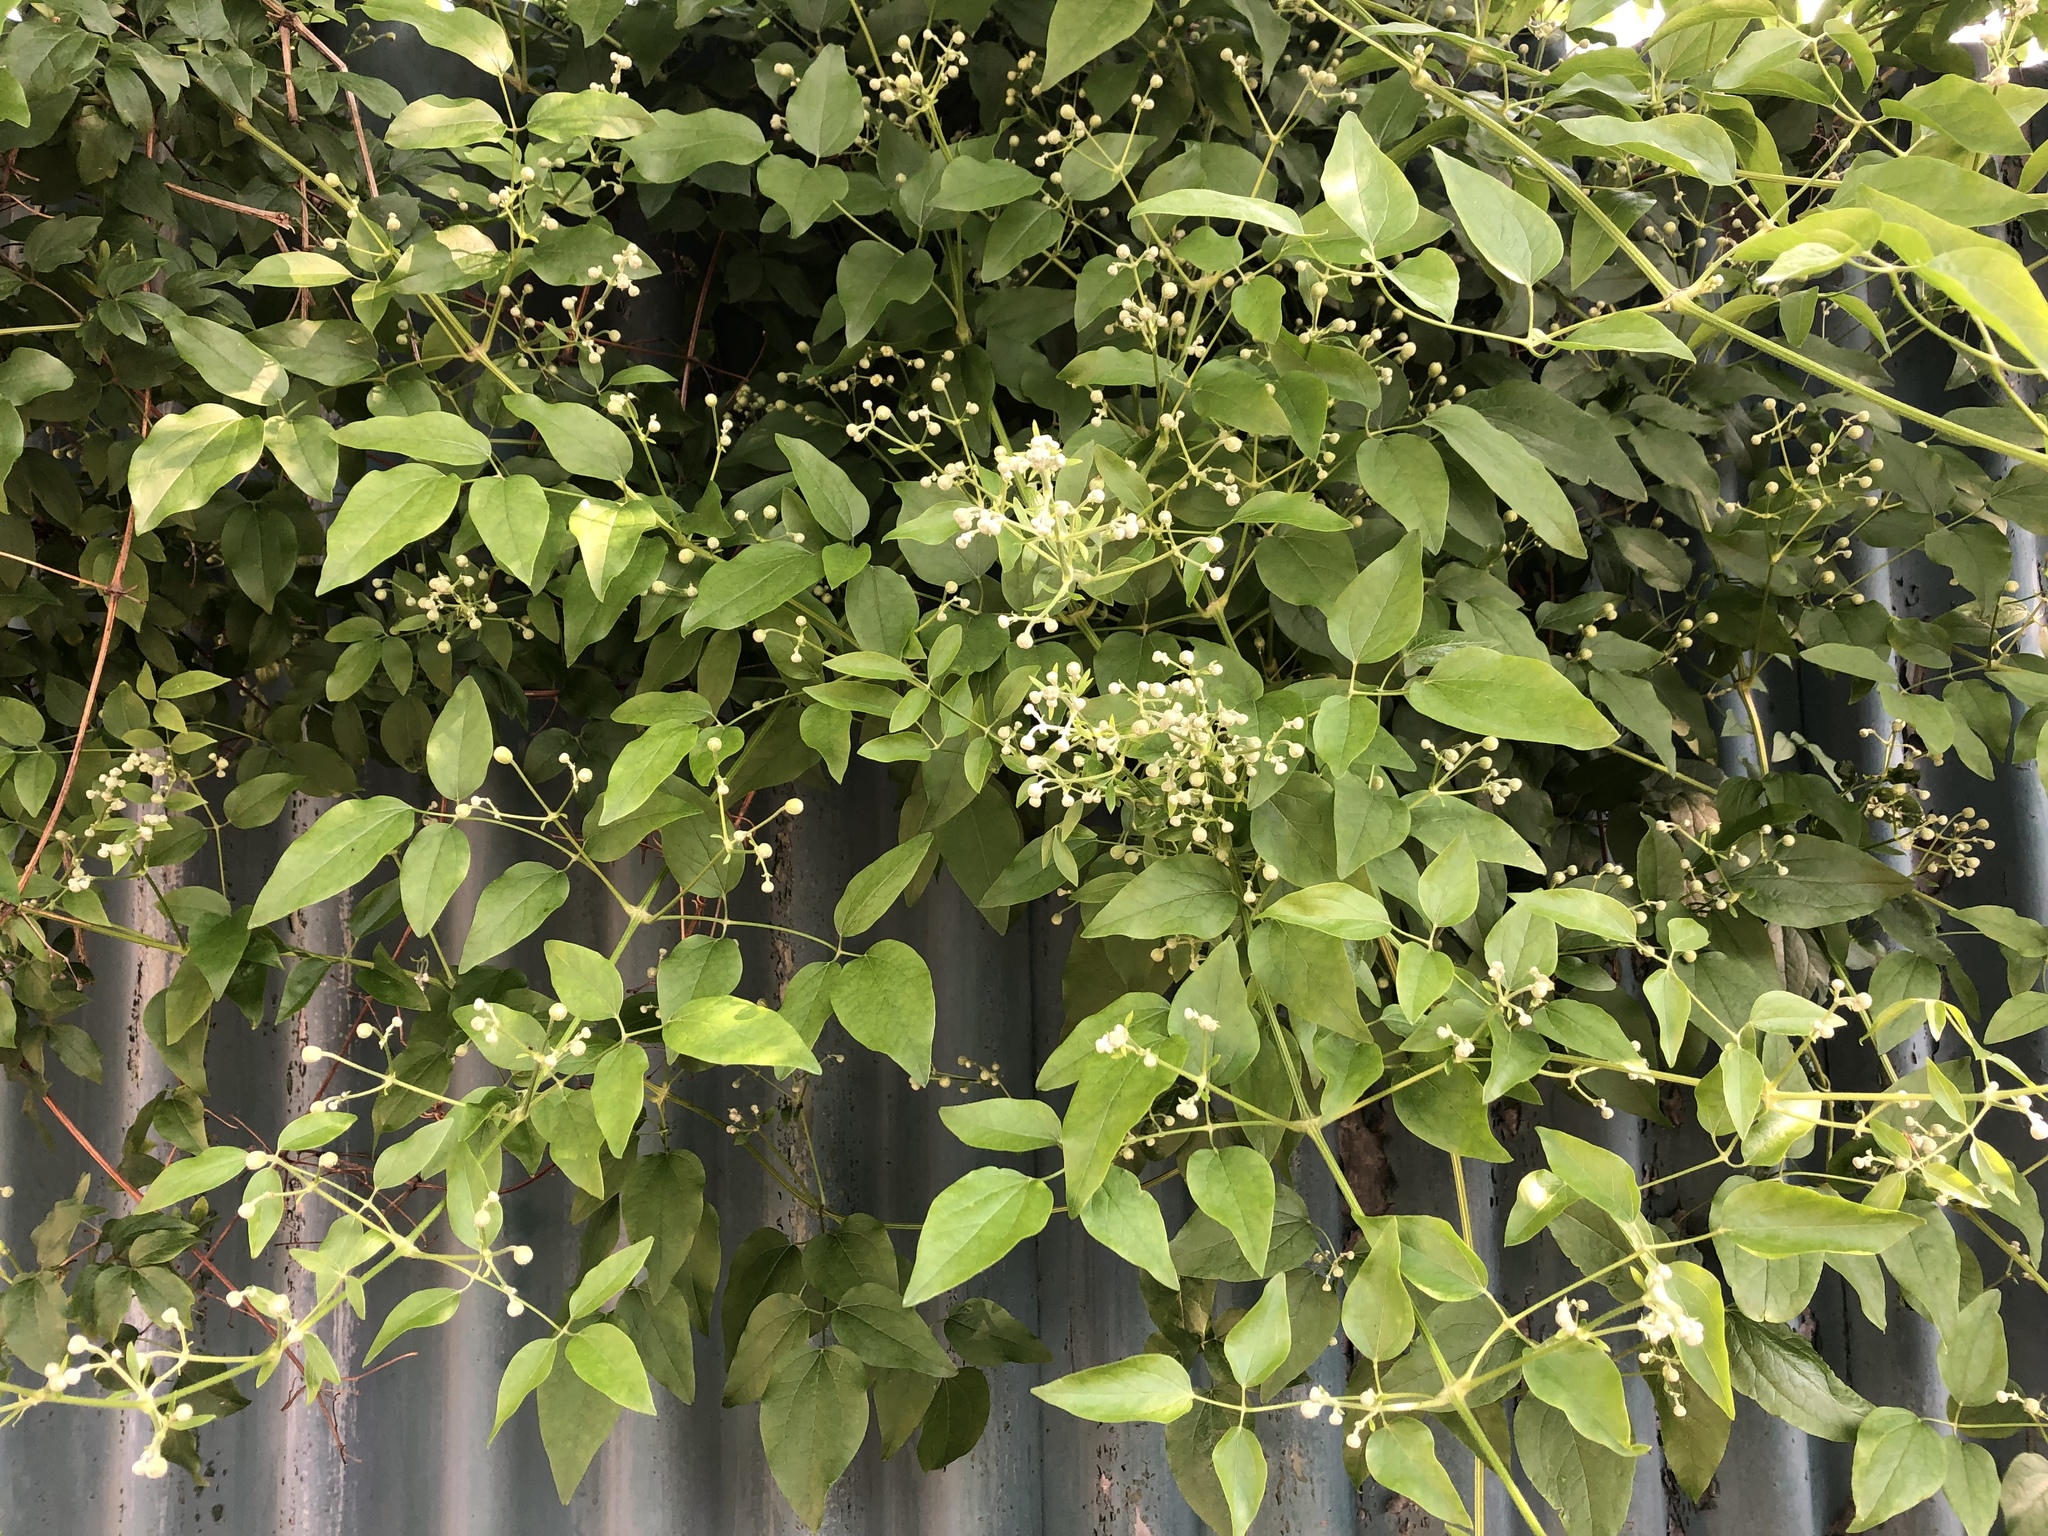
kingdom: Plantae
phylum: Tracheophyta
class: Magnoliopsida
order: Ranunculales
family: Ranunculaceae
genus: Clematis
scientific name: Clematis vitalba
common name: Evergreen clematis
